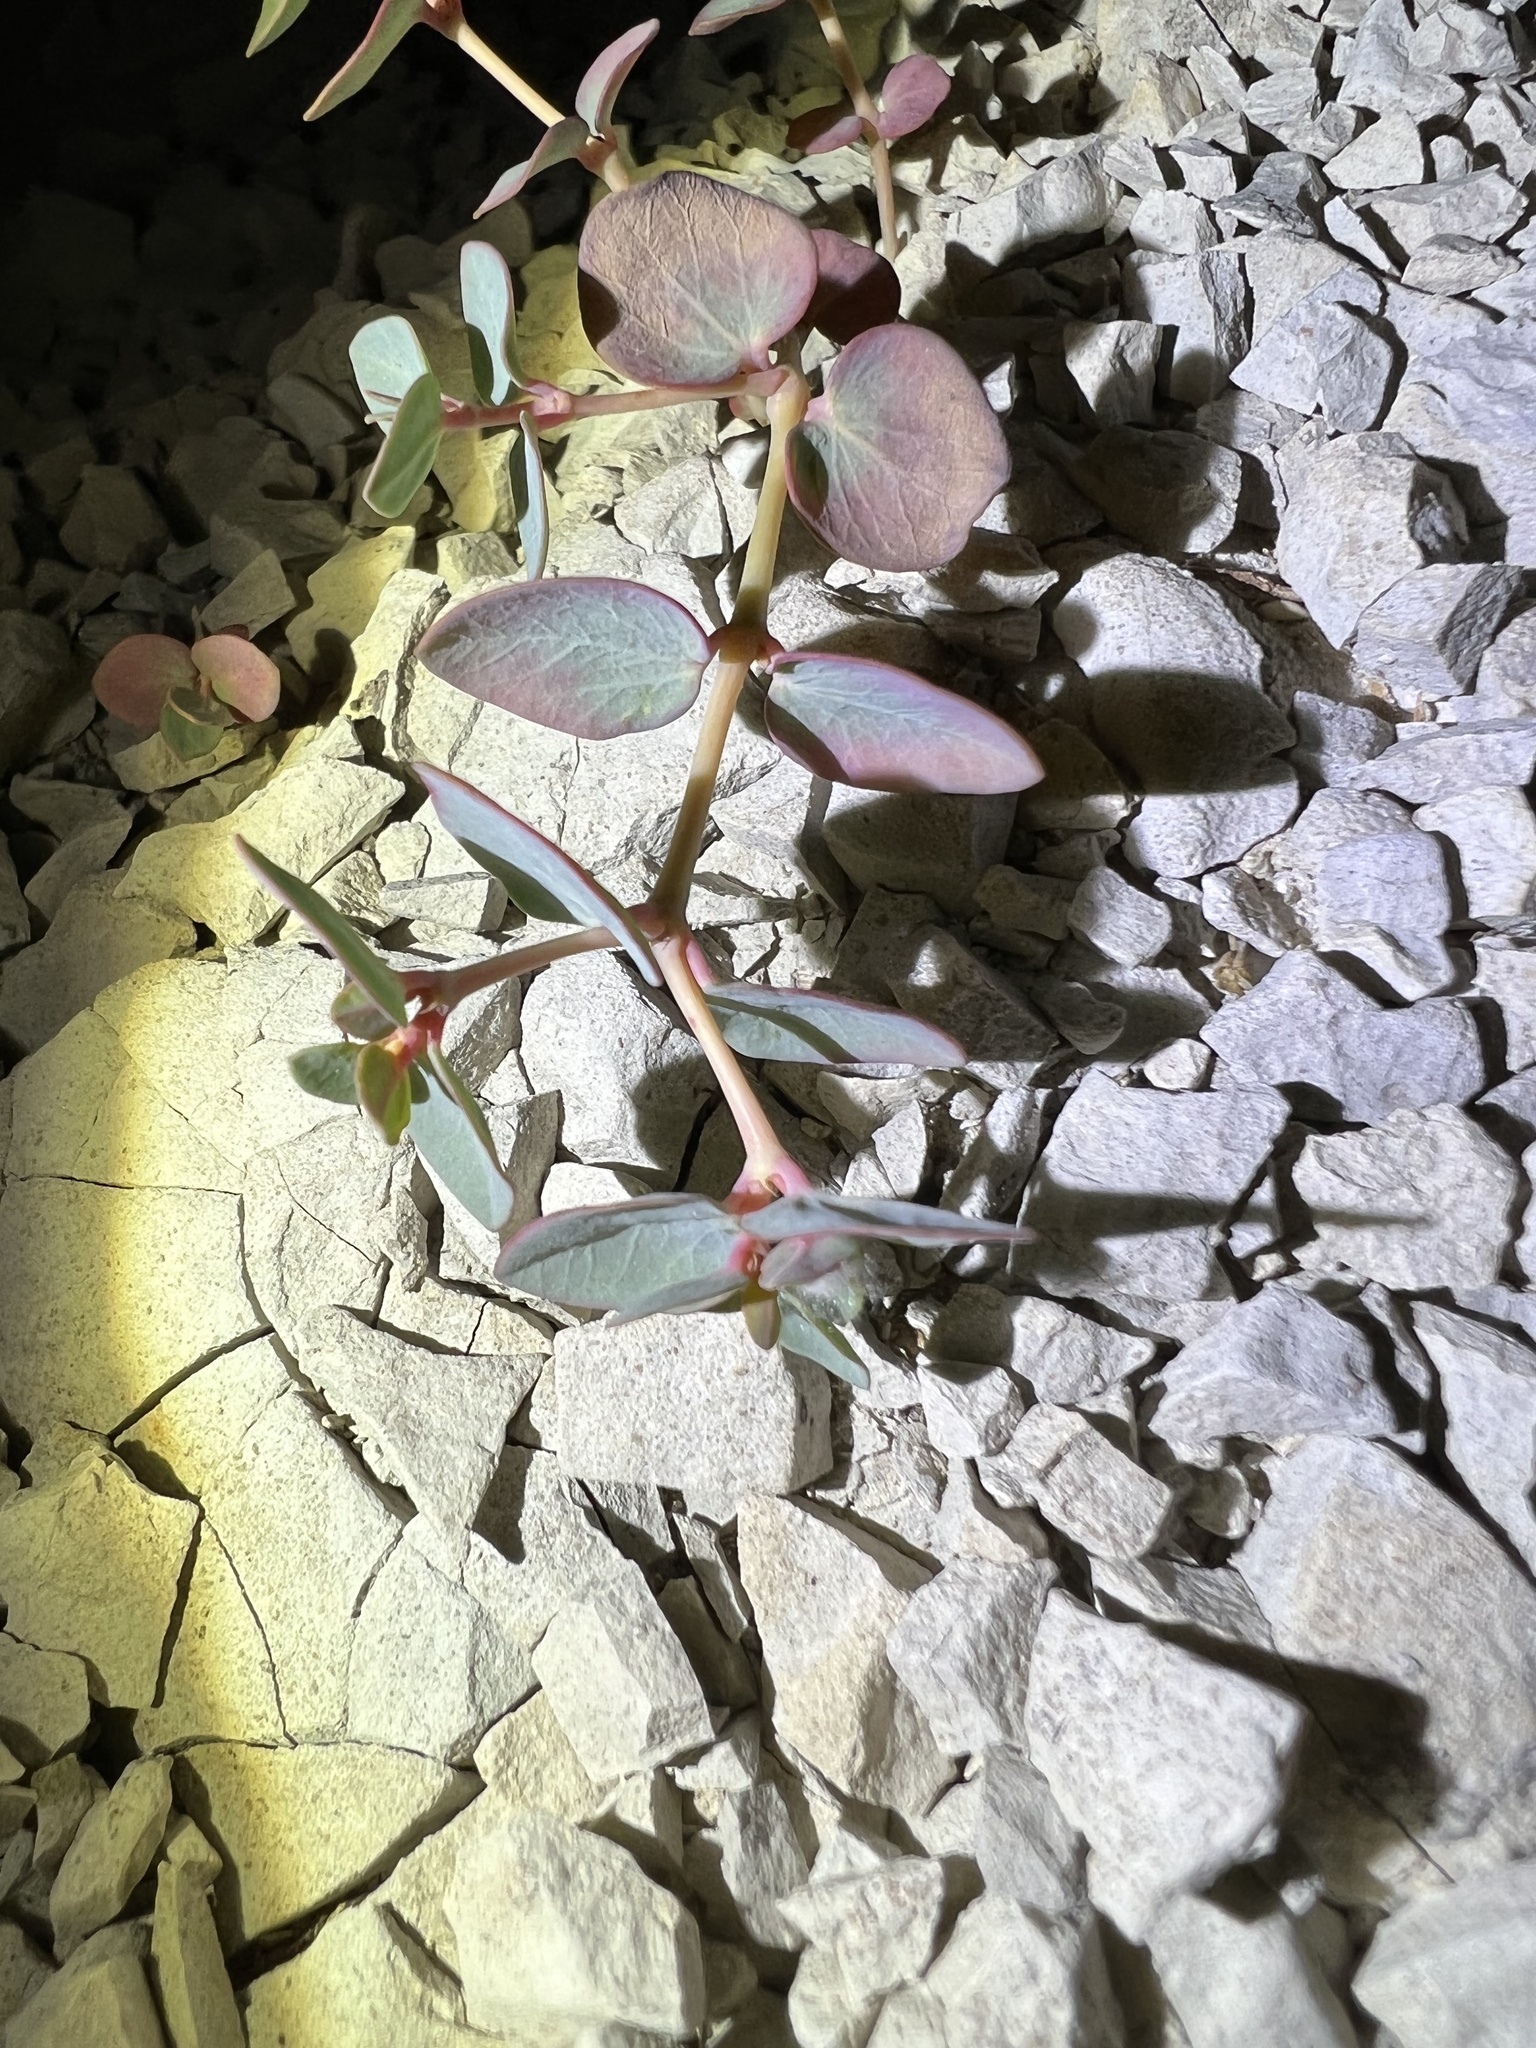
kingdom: Plantae
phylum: Tracheophyta
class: Magnoliopsida
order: Malpighiales
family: Euphorbiaceae
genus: Euphorbia
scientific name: Euphorbia perennans
